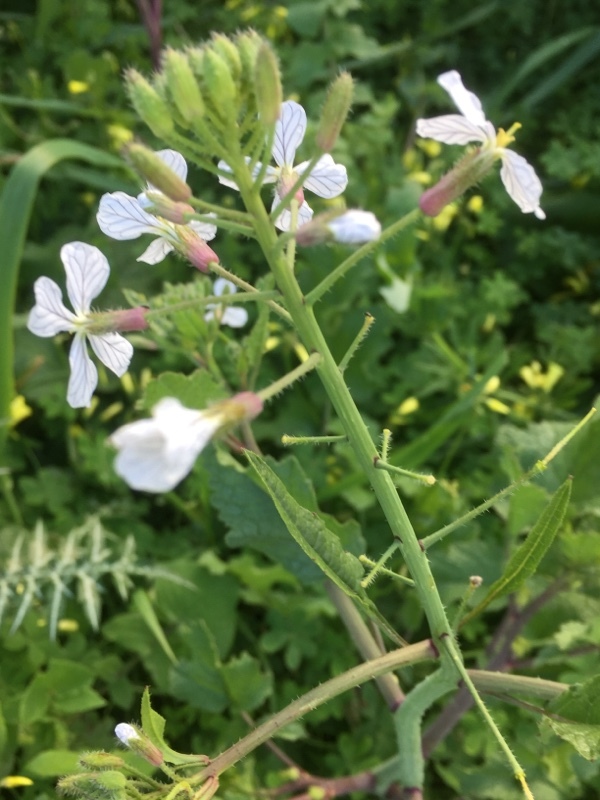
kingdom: Plantae
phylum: Tracheophyta
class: Magnoliopsida
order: Brassicales
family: Brassicaceae
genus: Eruca
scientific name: Eruca vesicaria
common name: Garden rocket
